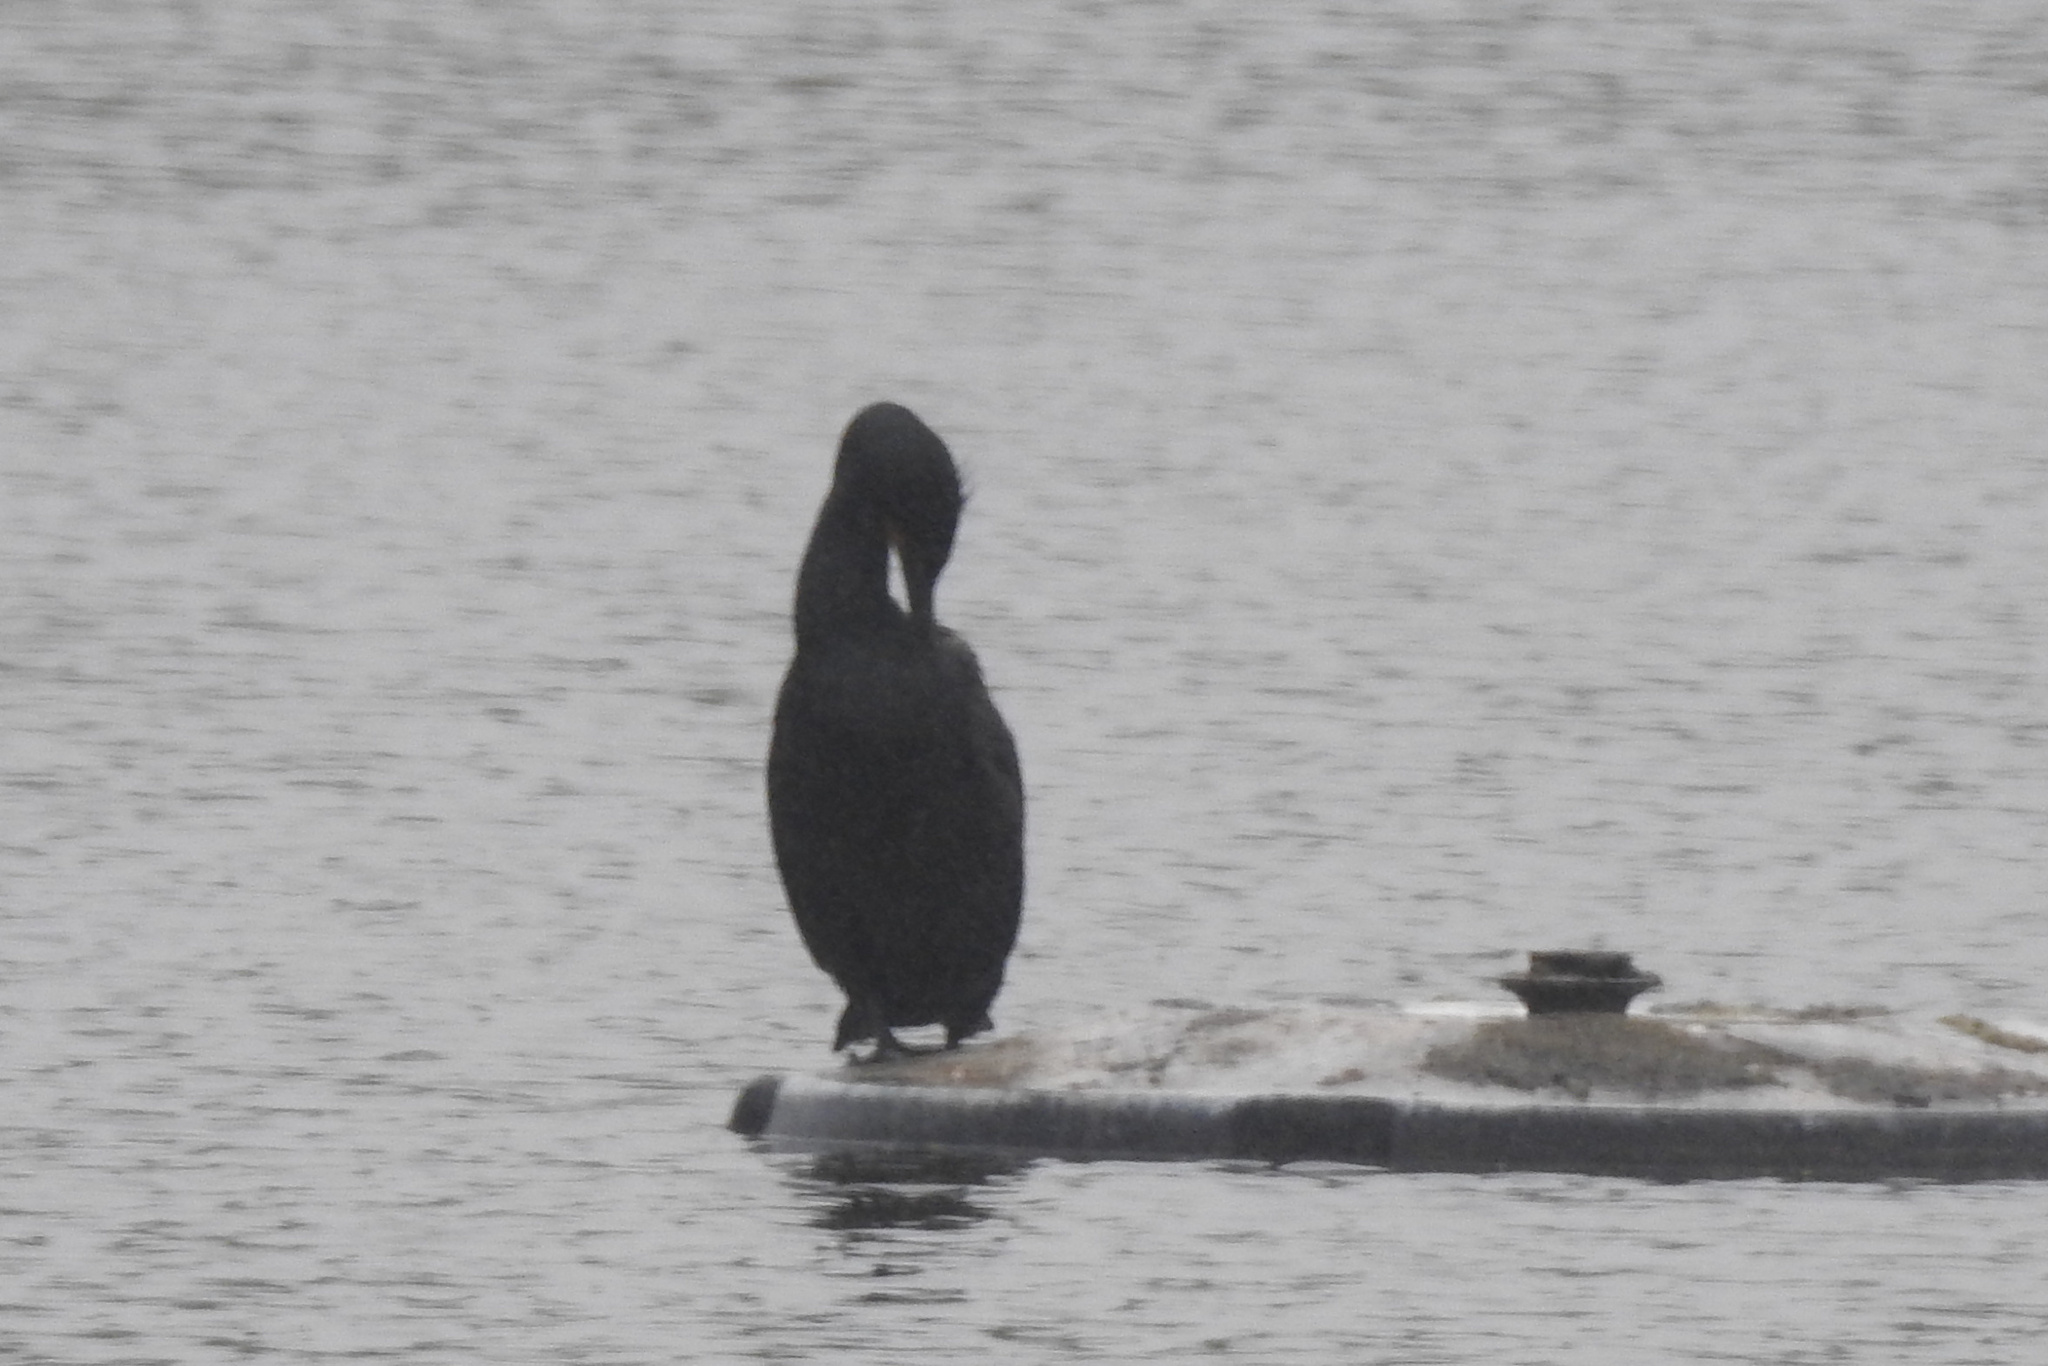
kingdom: Animalia
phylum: Chordata
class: Aves
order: Suliformes
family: Phalacrocoracidae
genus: Phalacrocorax
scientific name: Phalacrocorax auritus
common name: Double-crested cormorant
